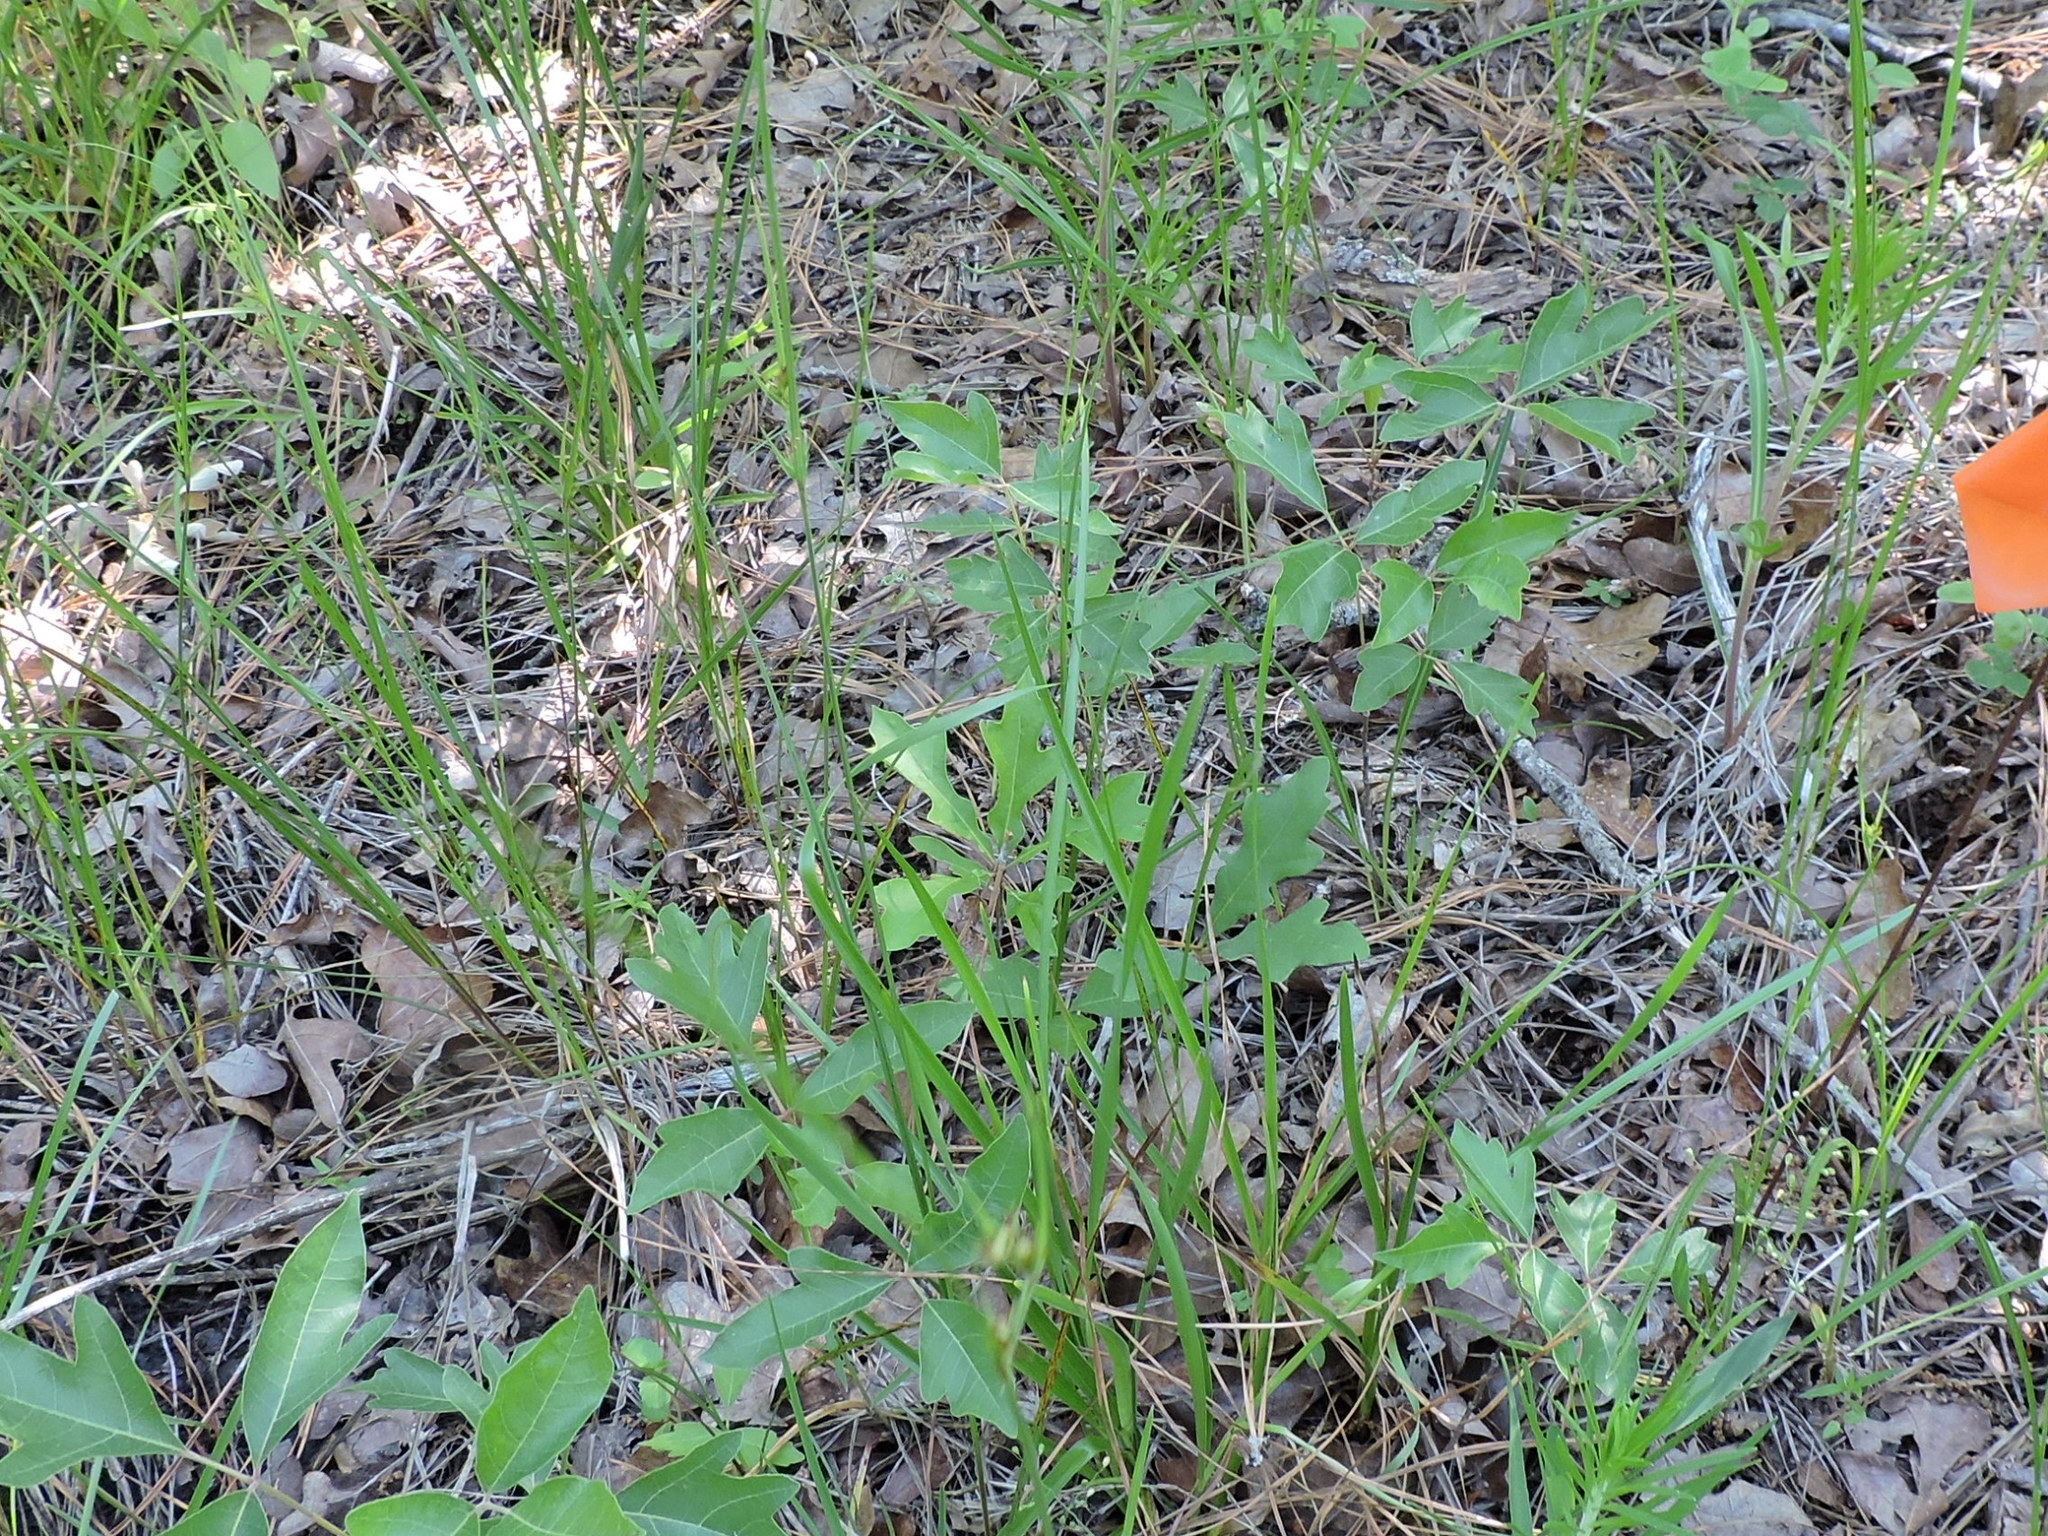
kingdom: Plantae
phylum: Tracheophyta
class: Liliopsida
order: Poales
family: Cyperaceae
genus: Scleria
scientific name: Scleria ciliata
